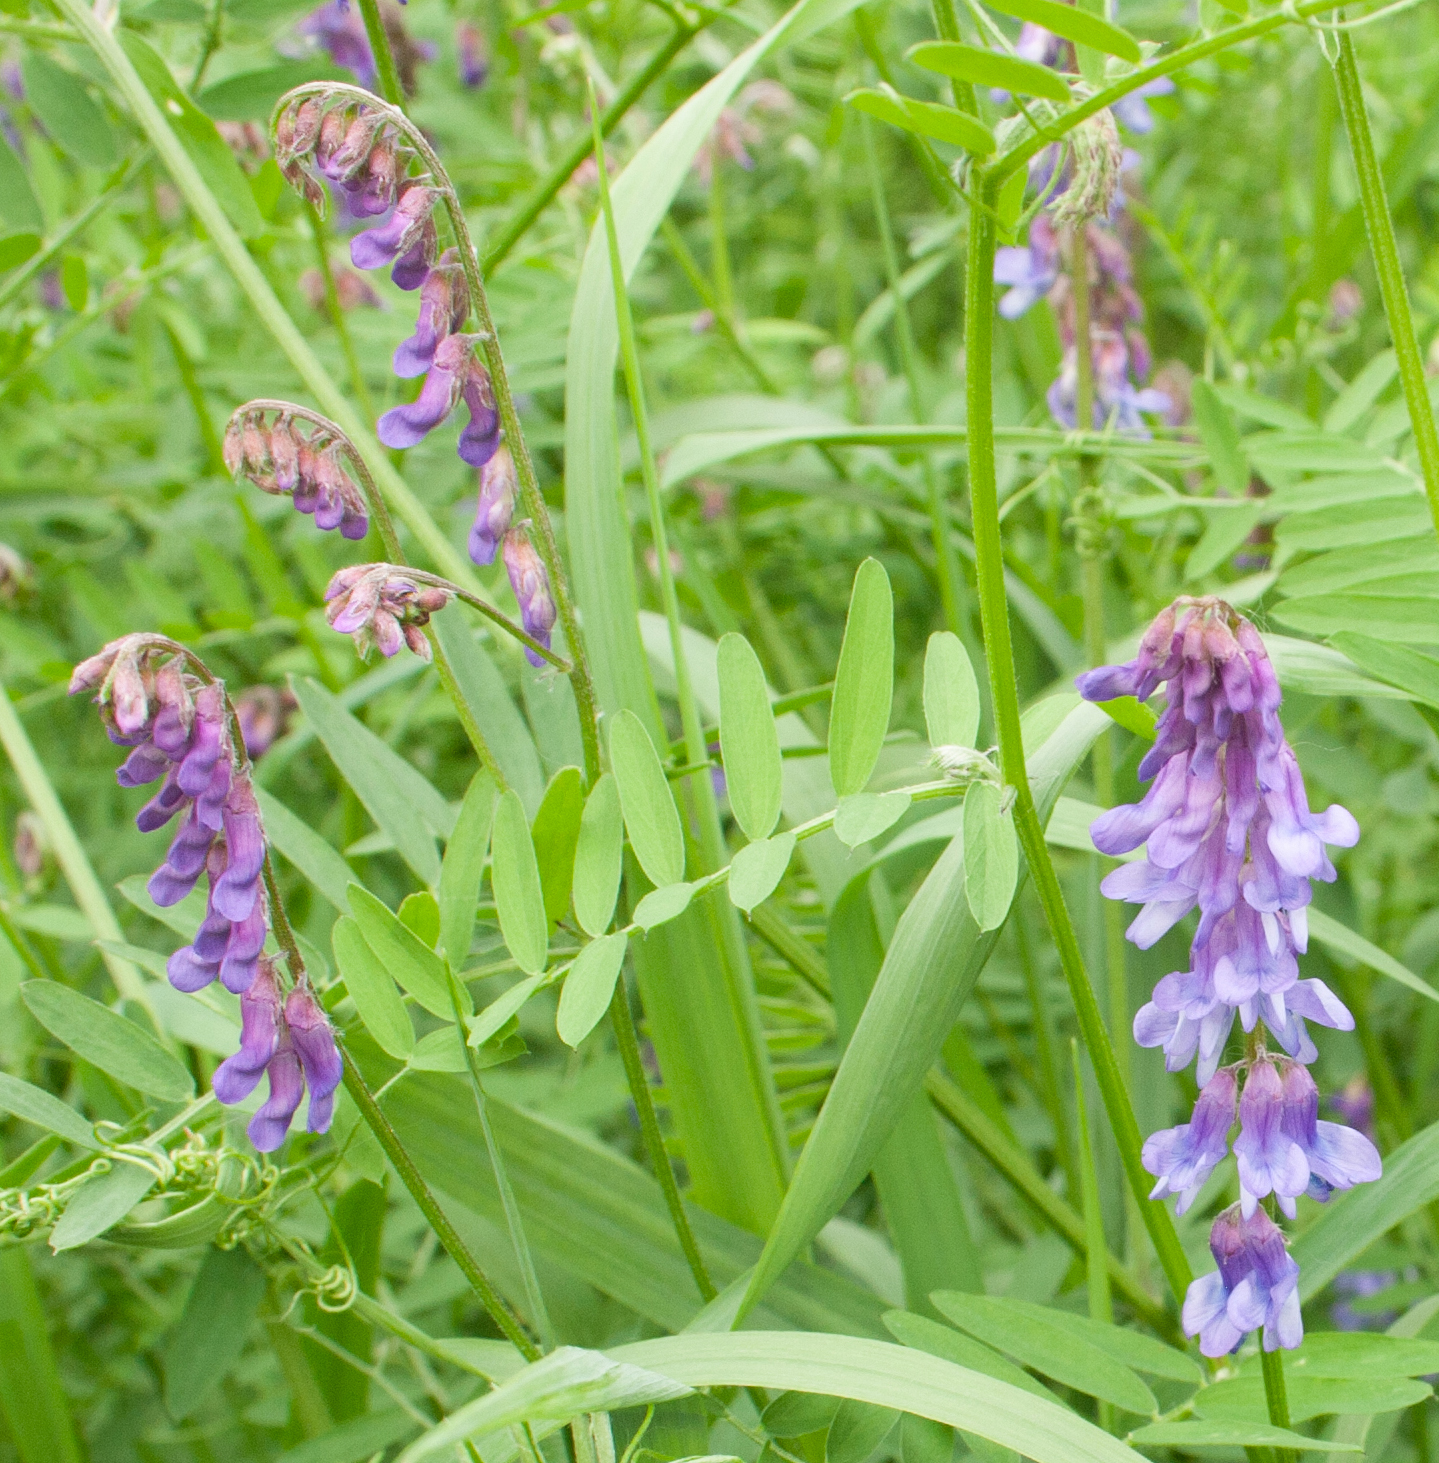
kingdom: Plantae
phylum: Tracheophyta
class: Magnoliopsida
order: Fabales
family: Fabaceae
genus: Vicia
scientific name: Vicia cracca
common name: Bird vetch
